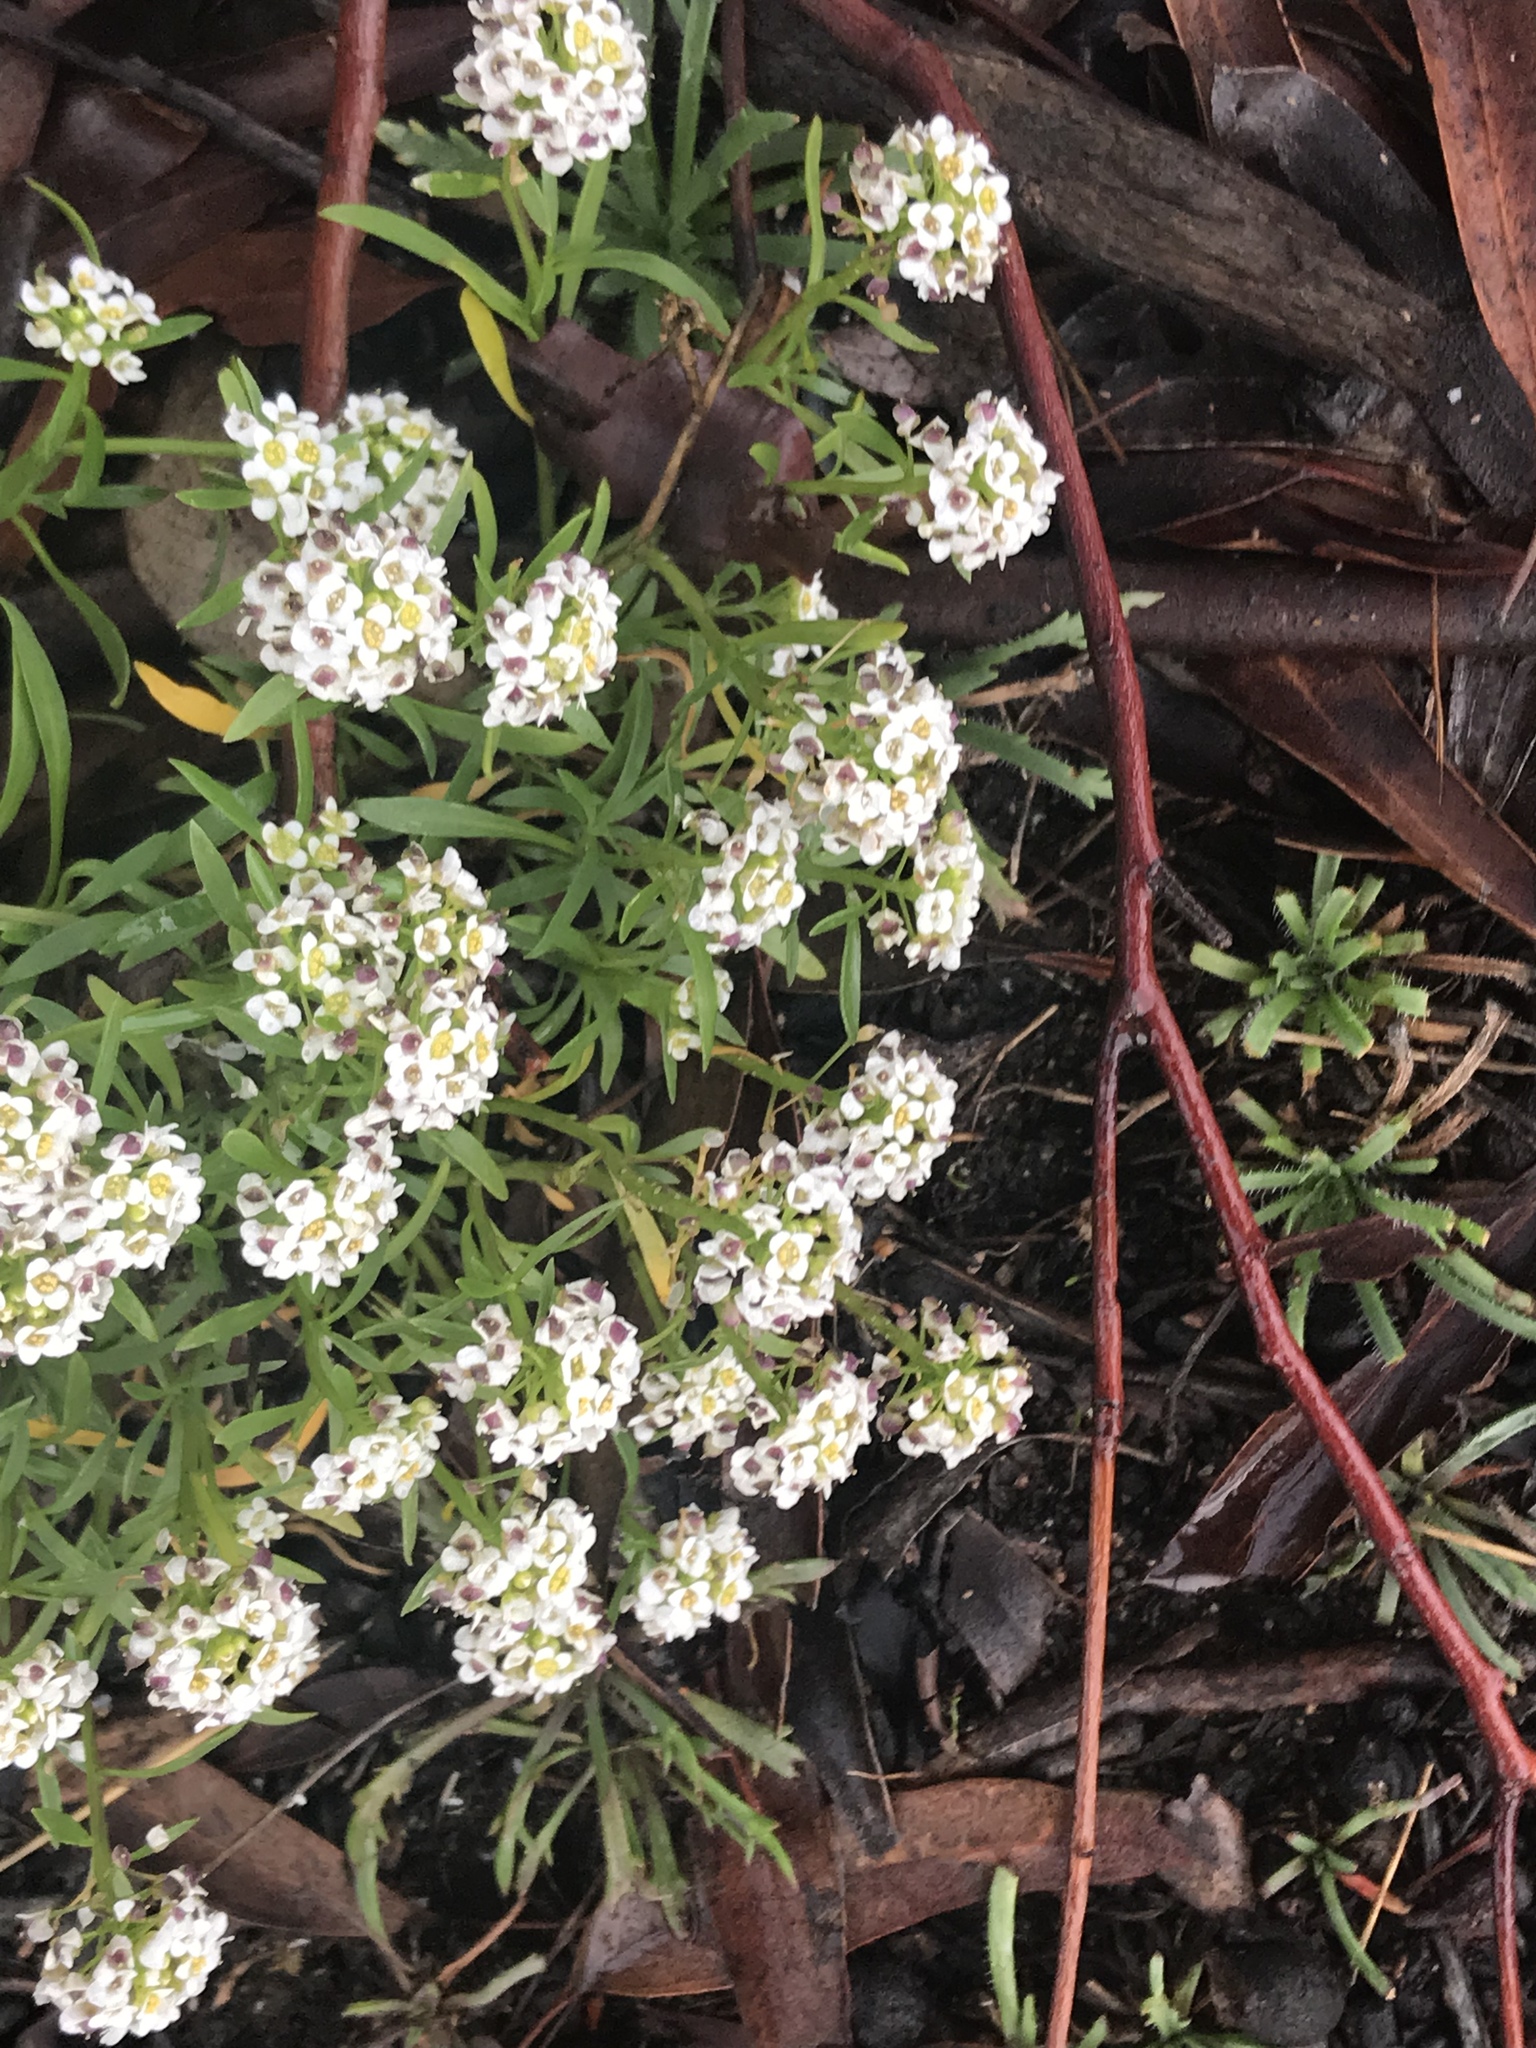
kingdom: Plantae
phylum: Tracheophyta
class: Magnoliopsida
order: Brassicales
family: Brassicaceae
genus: Lobularia
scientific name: Lobularia maritima
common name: Sweet alison
